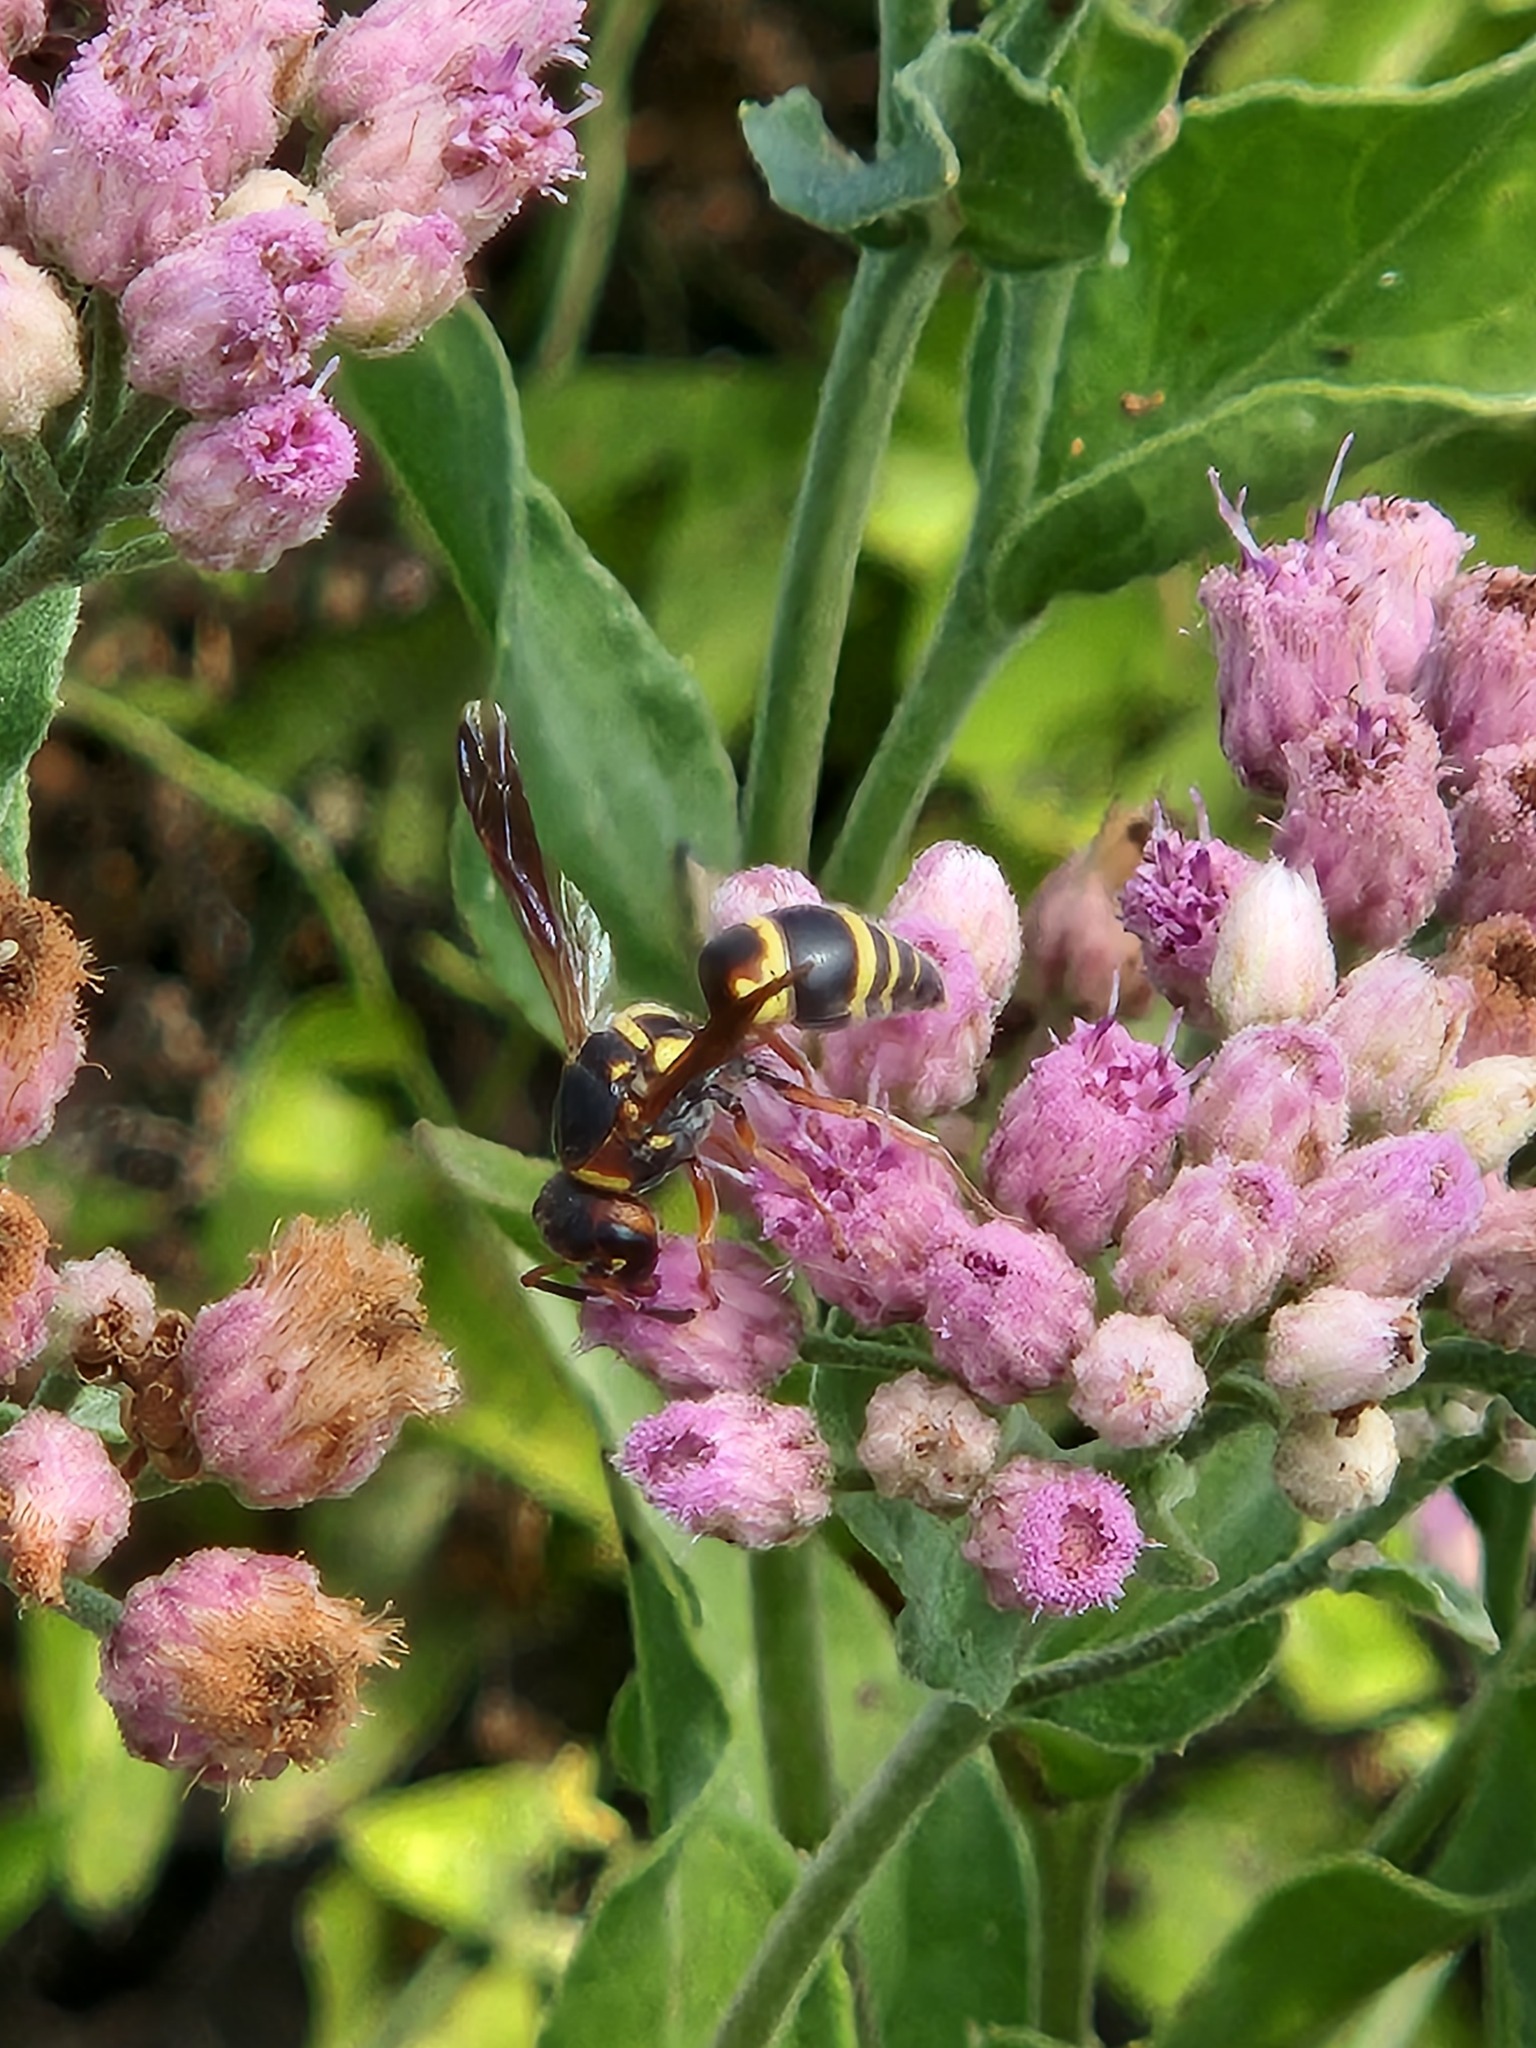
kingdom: Animalia
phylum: Arthropoda
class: Insecta
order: Hymenoptera
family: Eumenidae
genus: Euodynerus
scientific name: Euodynerus hidalgo
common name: Wasp
